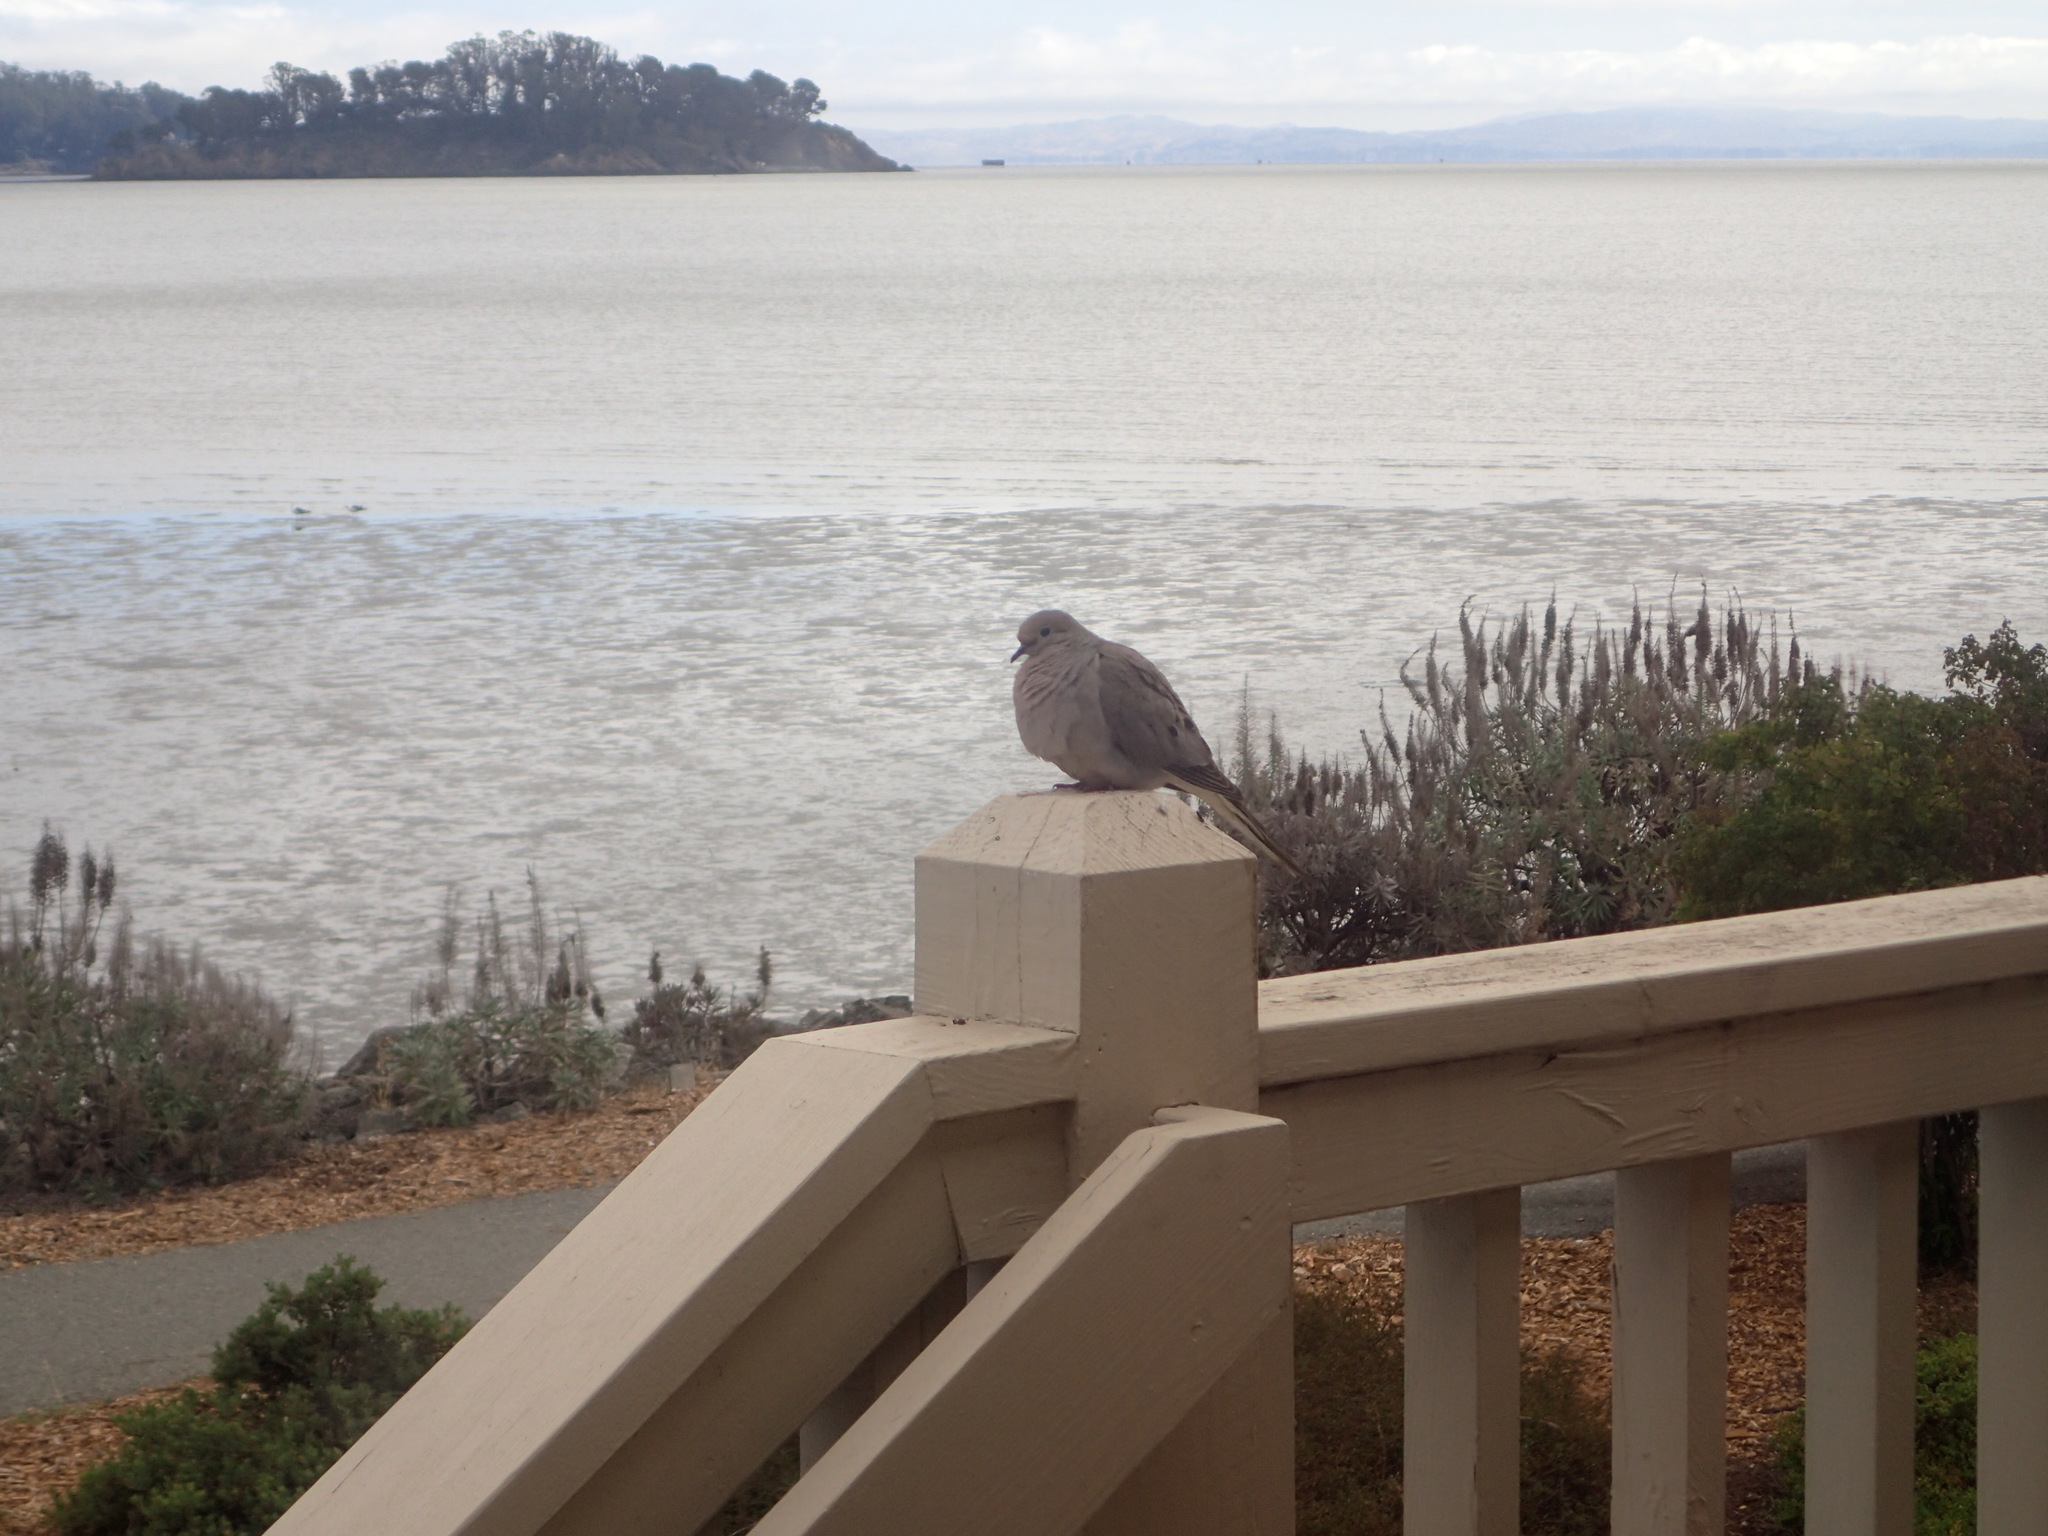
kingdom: Animalia
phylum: Chordata
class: Aves
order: Columbiformes
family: Columbidae
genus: Zenaida
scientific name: Zenaida macroura
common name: Mourning dove
